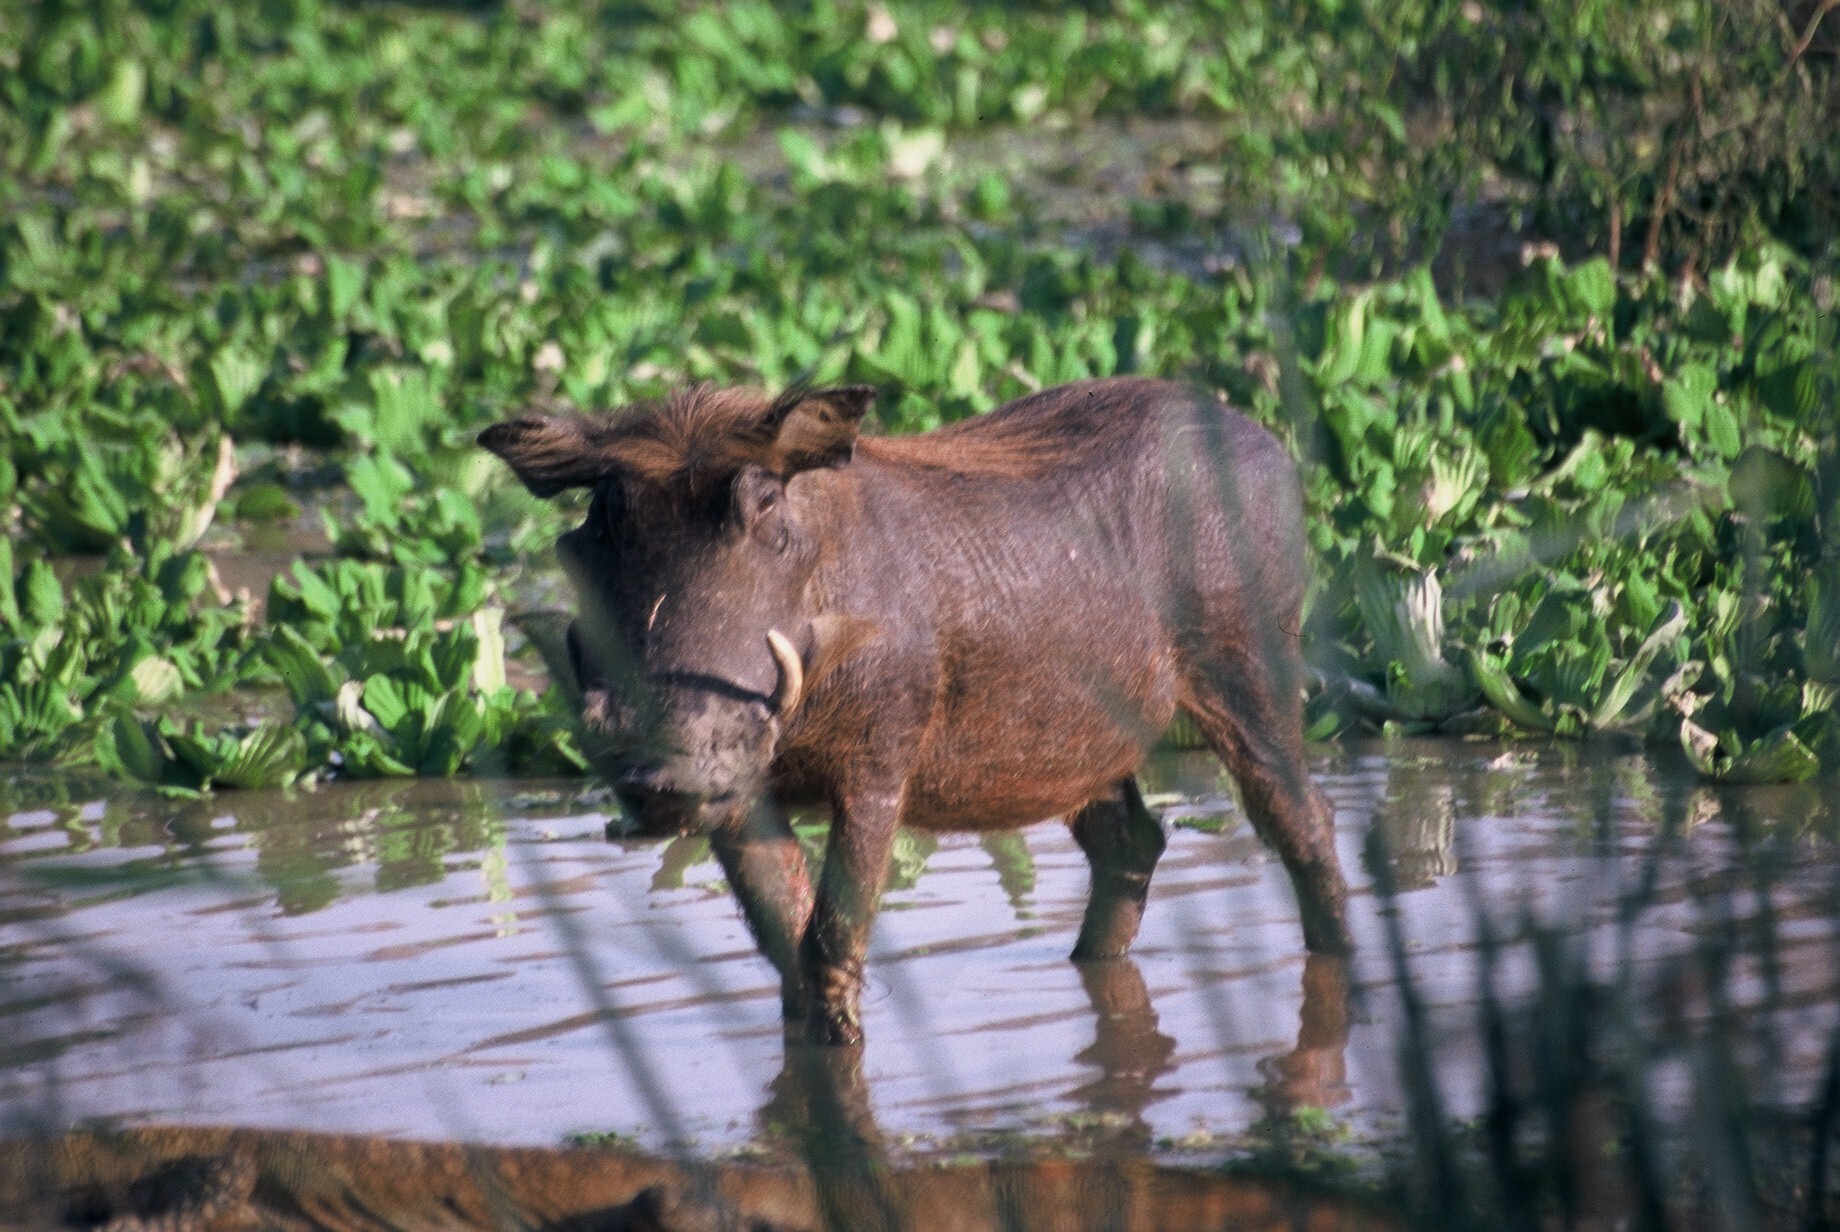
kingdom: Animalia
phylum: Chordata
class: Mammalia
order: Artiodactyla
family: Suidae
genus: Phacochoerus
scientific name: Phacochoerus africanus
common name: Common warthog
